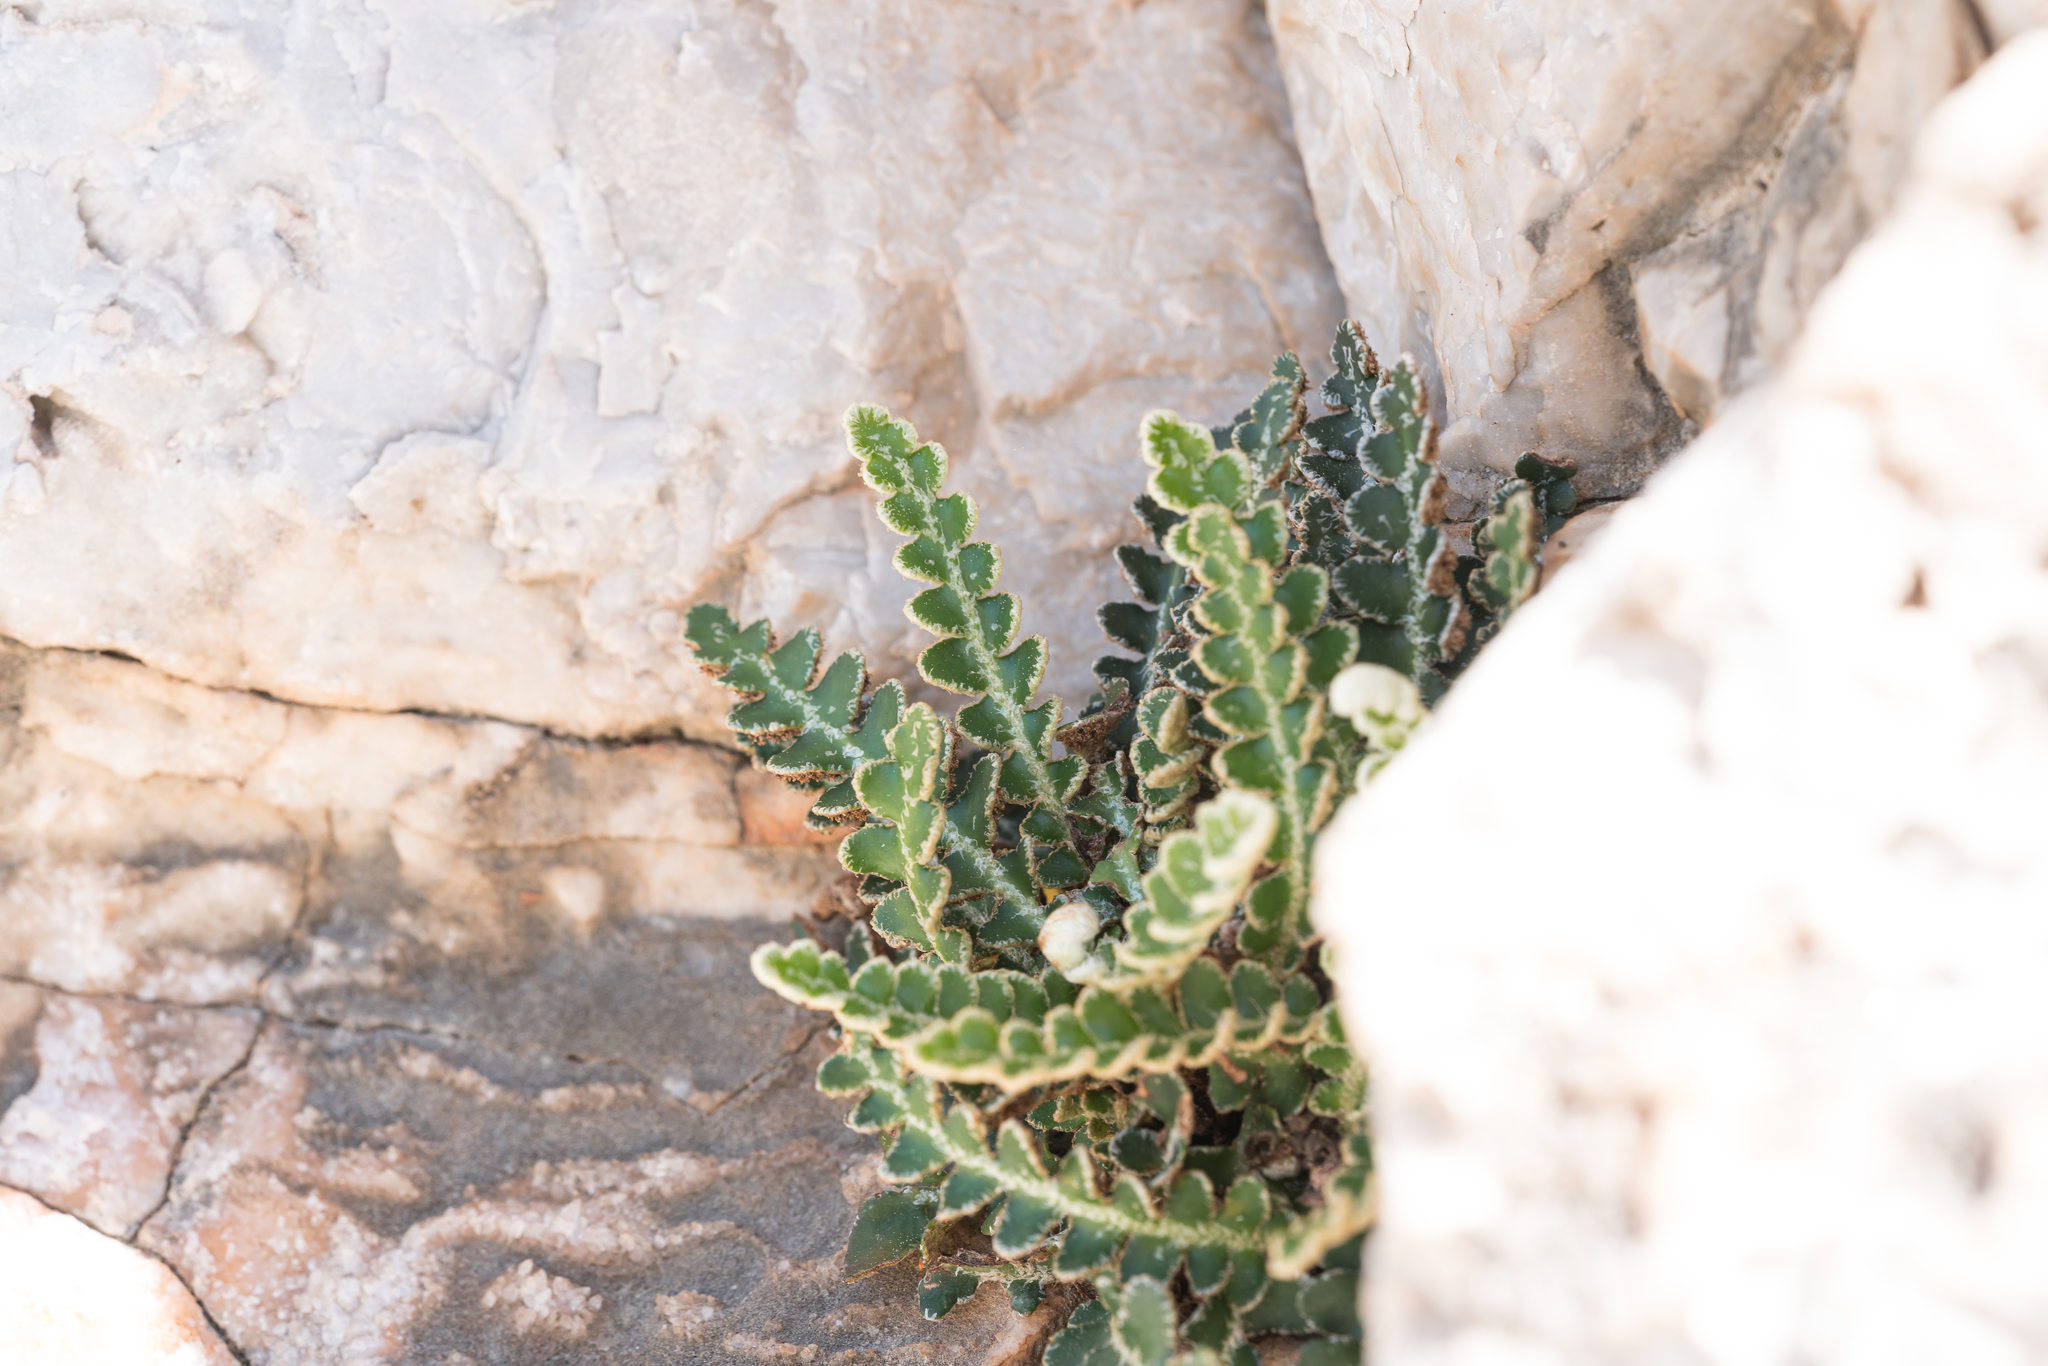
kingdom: Plantae
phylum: Tracheophyta
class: Polypodiopsida
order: Polypodiales
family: Aspleniaceae
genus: Asplenium
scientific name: Asplenium ceterach
